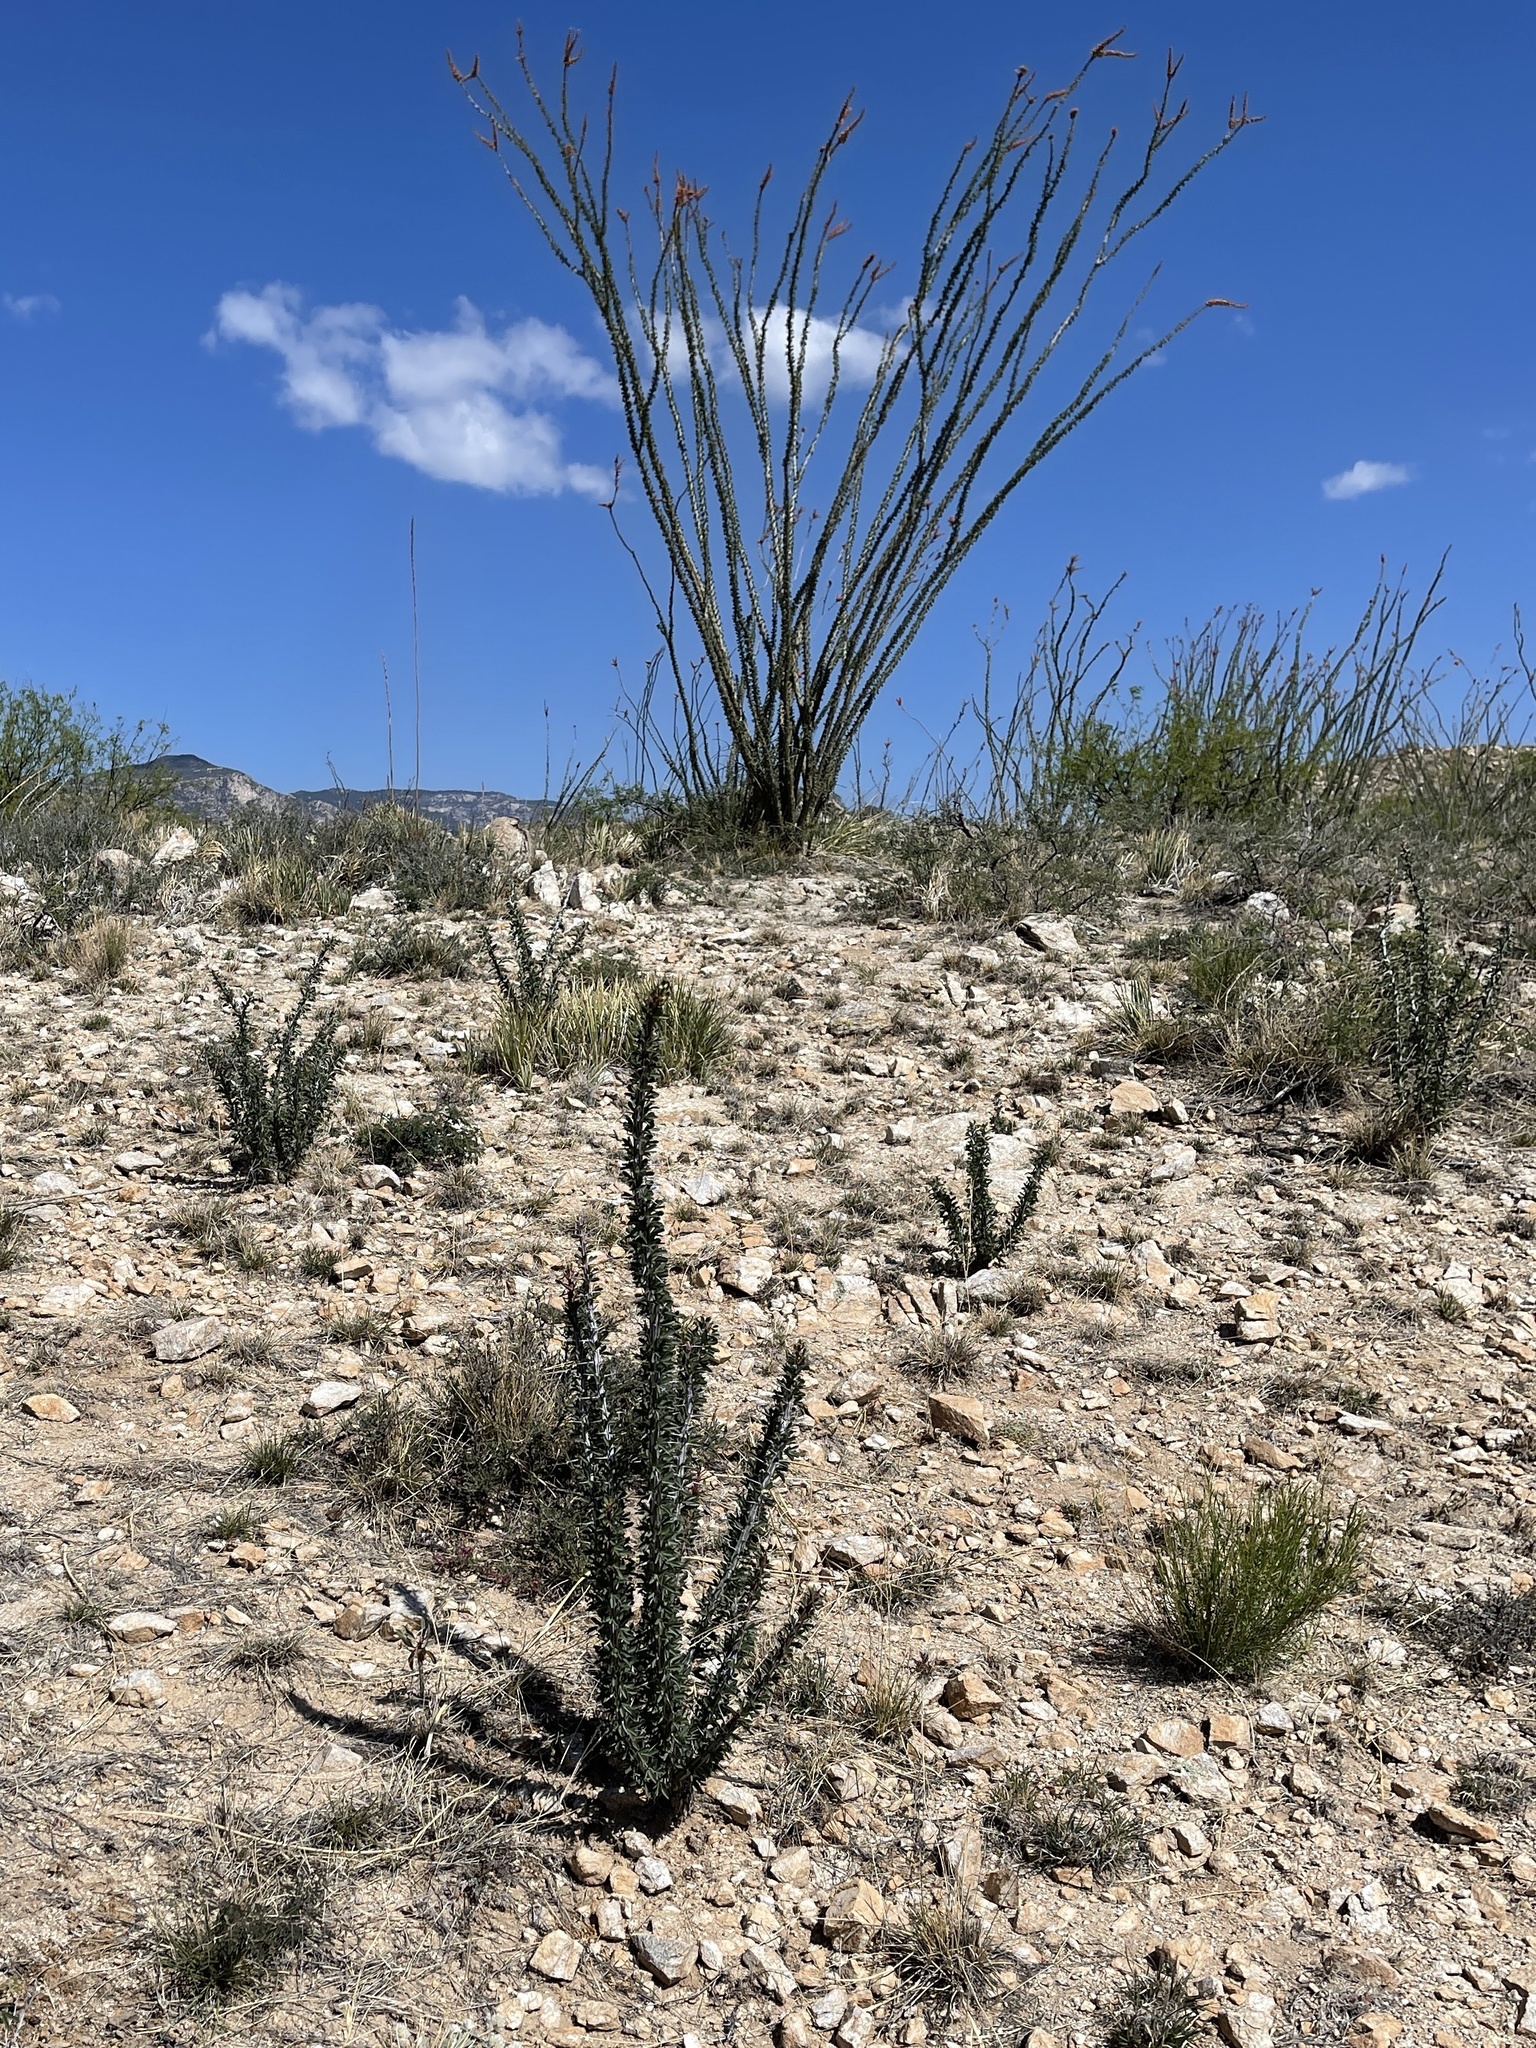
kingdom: Plantae
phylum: Tracheophyta
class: Magnoliopsida
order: Ericales
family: Fouquieriaceae
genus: Fouquieria
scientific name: Fouquieria splendens
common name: Vine-cactus
